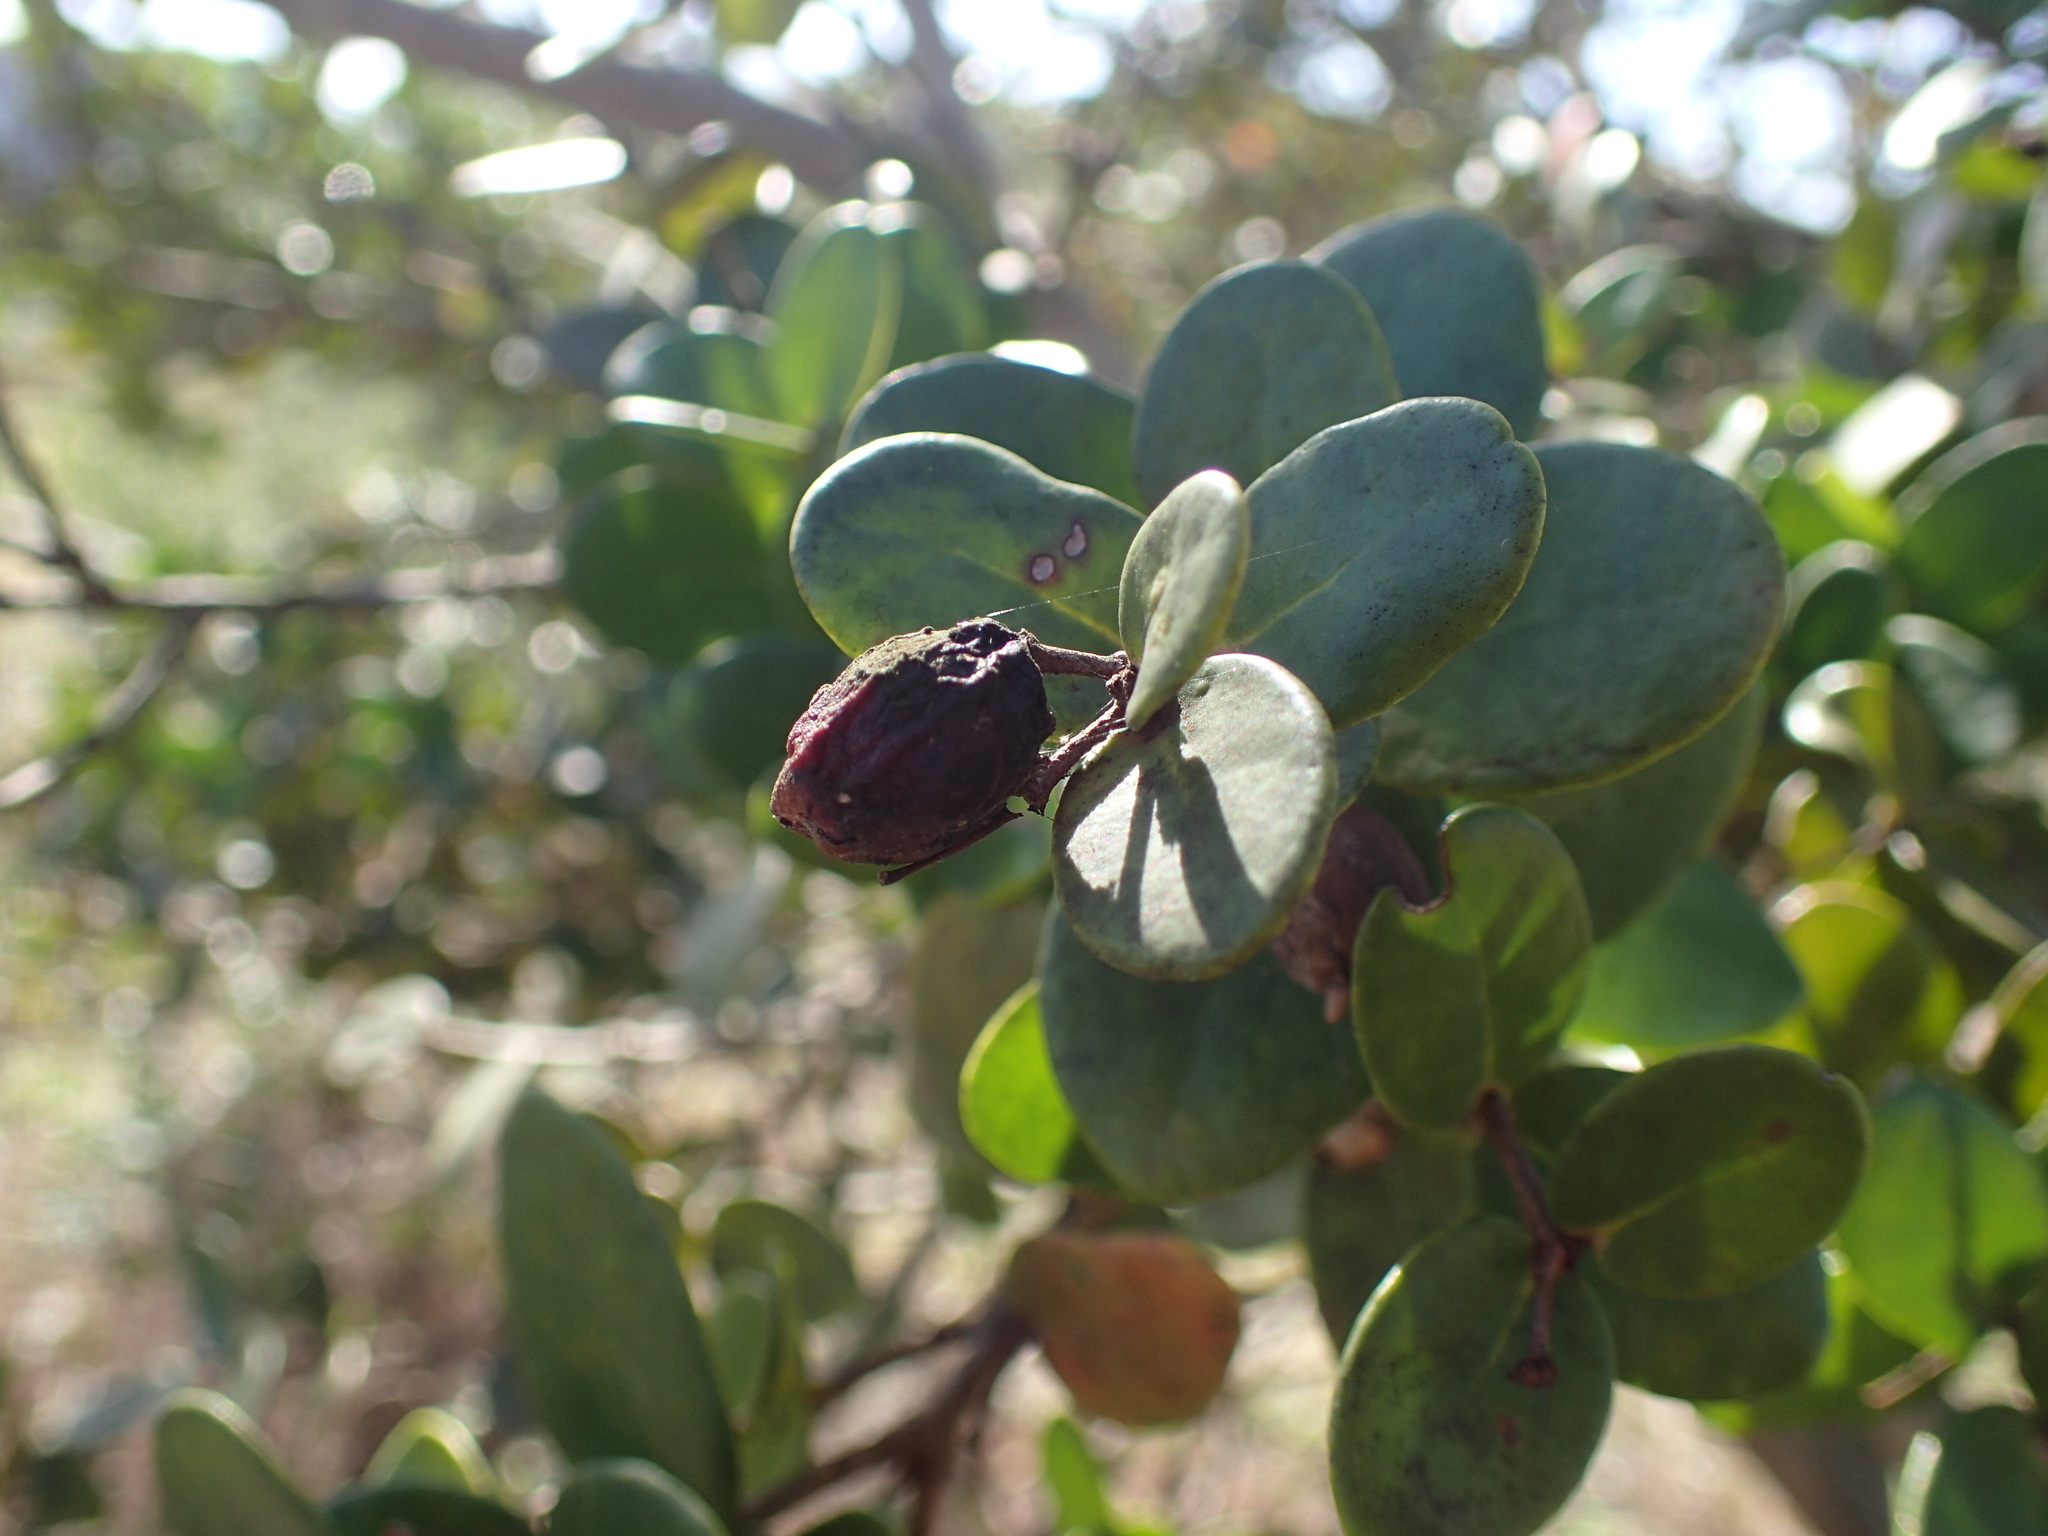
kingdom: Plantae
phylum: Tracheophyta
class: Magnoliopsida
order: Myrtales
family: Myrtaceae
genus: Eugenia
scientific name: Eugenia capensis
